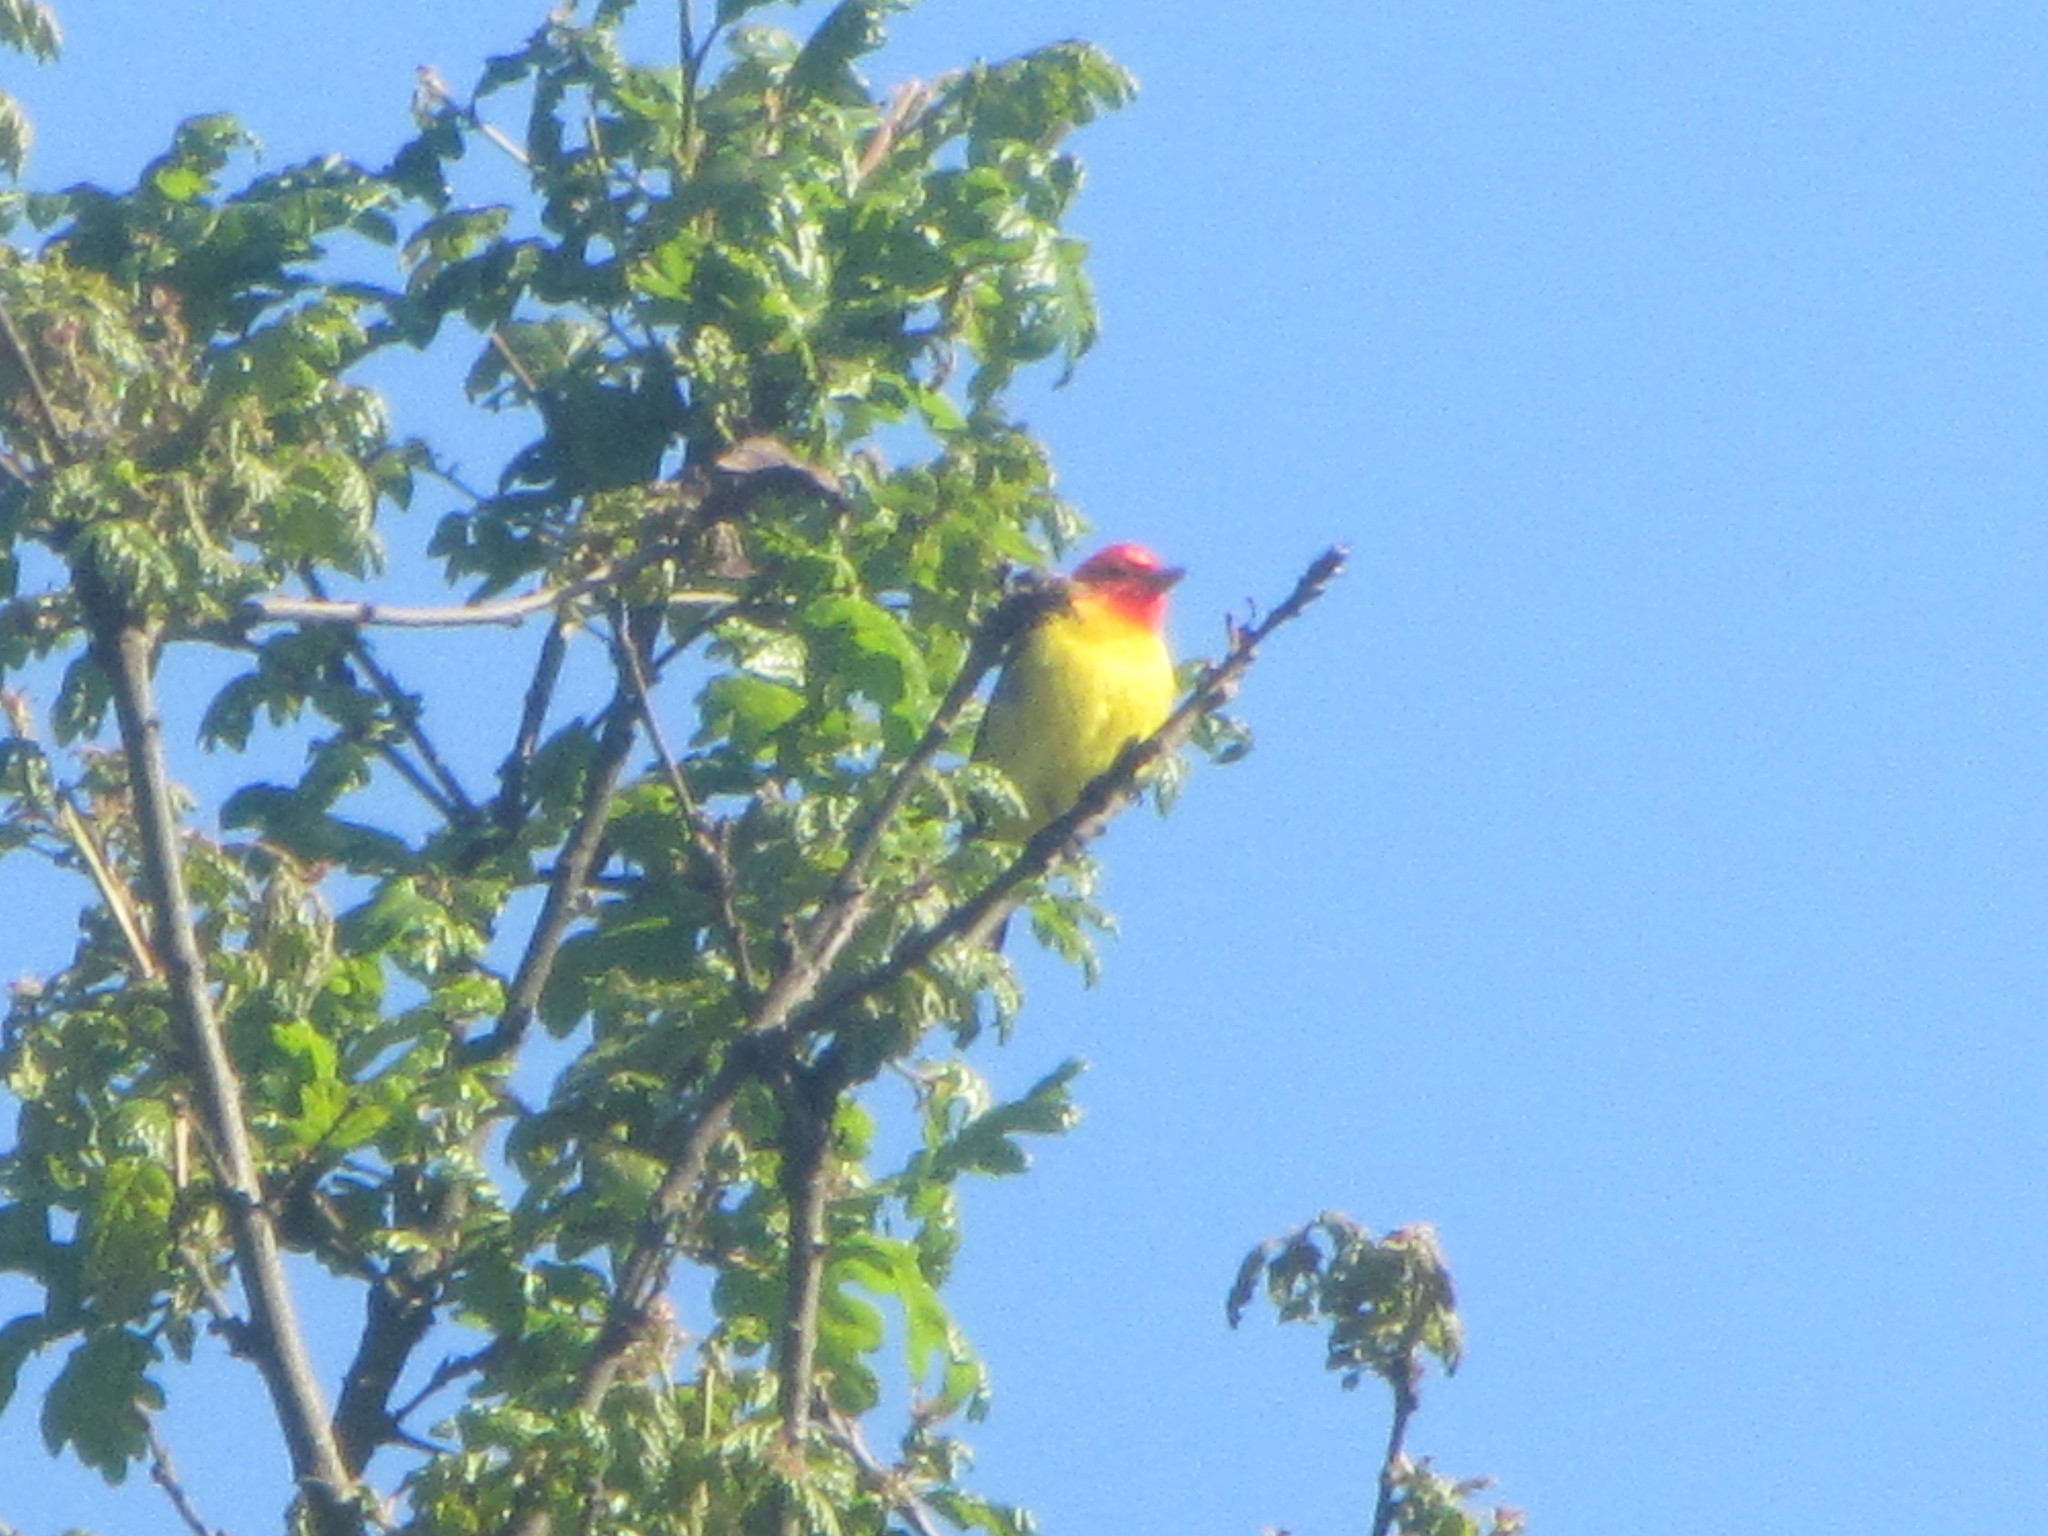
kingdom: Animalia
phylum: Chordata
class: Aves
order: Passeriformes
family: Cardinalidae
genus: Piranga
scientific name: Piranga ludoviciana
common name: Western tanager
